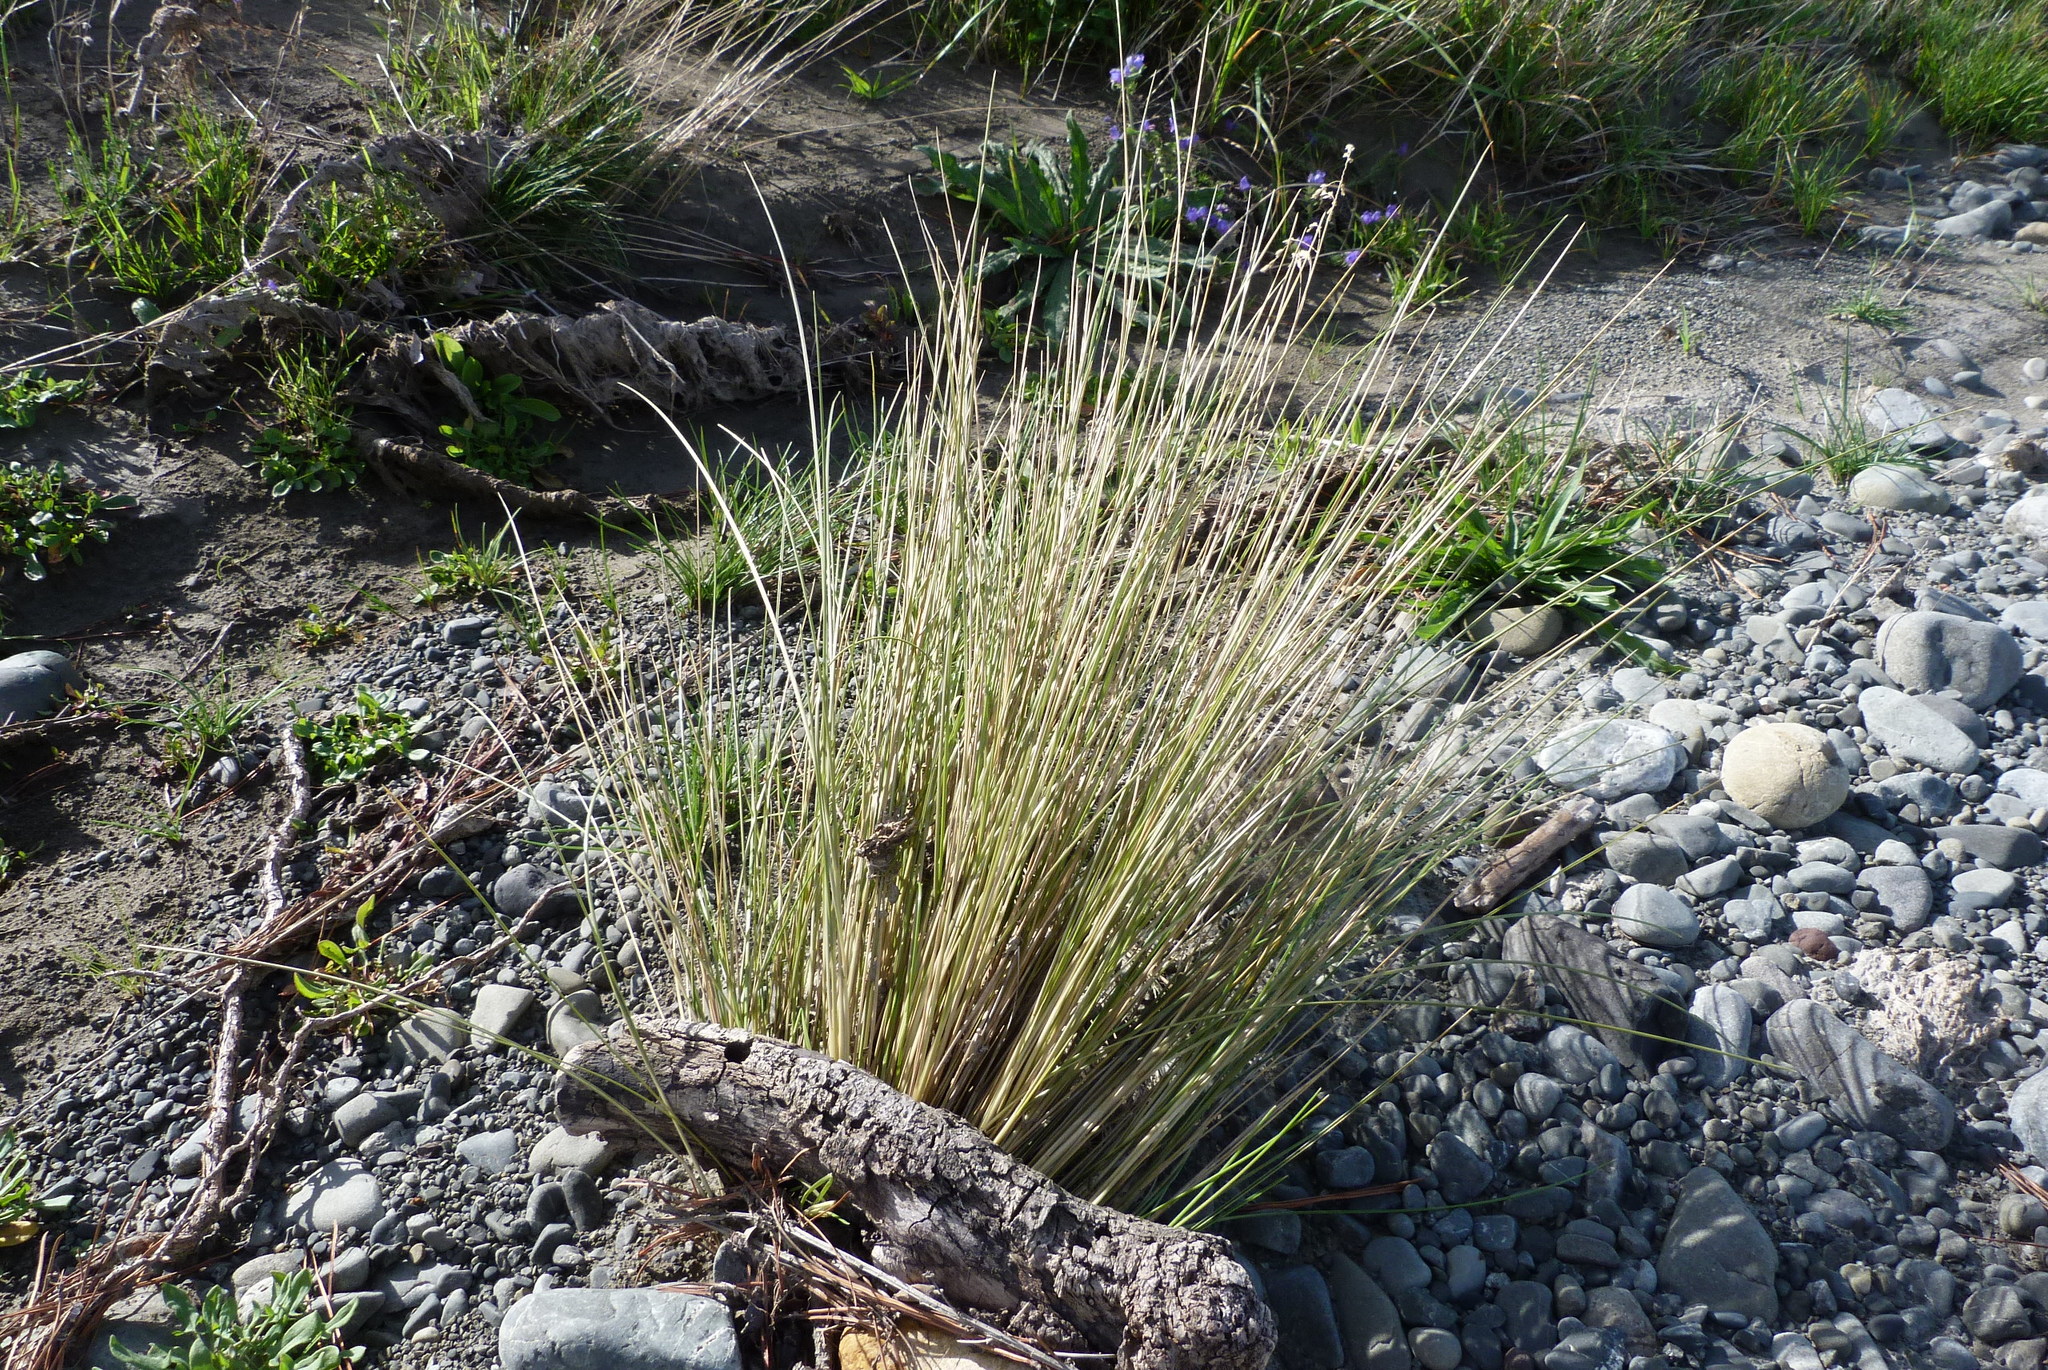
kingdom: Plantae
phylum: Tracheophyta
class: Liliopsida
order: Poales
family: Poaceae
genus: Poa
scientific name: Poa cita
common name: Silver tussock
